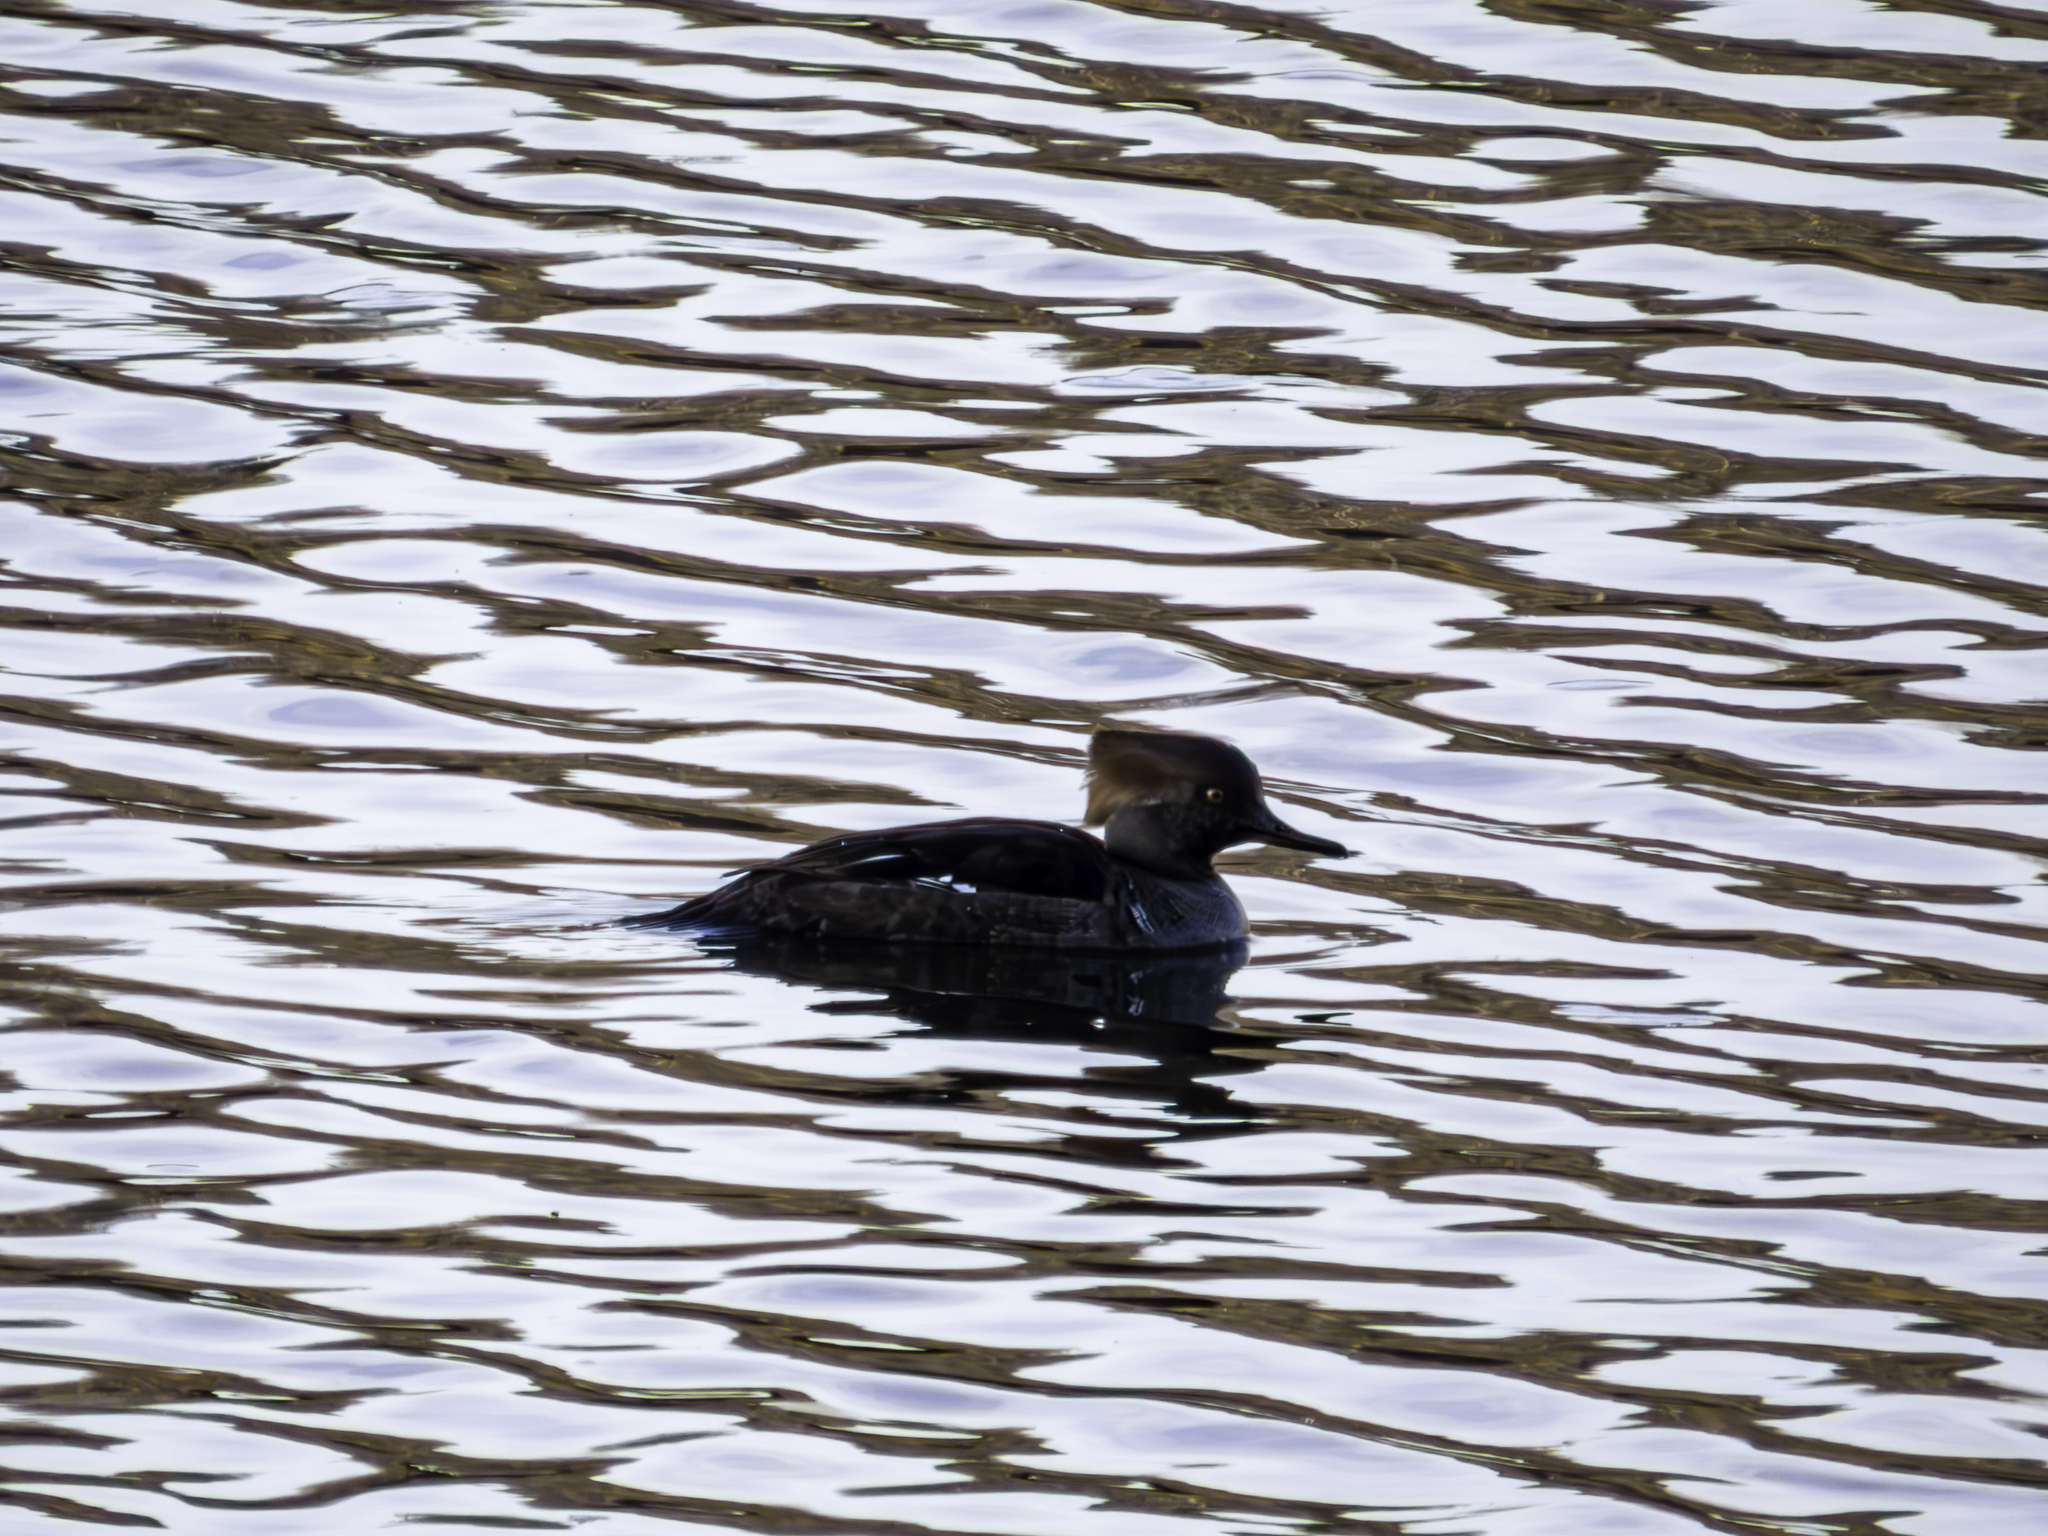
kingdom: Animalia
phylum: Chordata
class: Aves
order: Anseriformes
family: Anatidae
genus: Lophodytes
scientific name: Lophodytes cucullatus
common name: Hooded merganser
